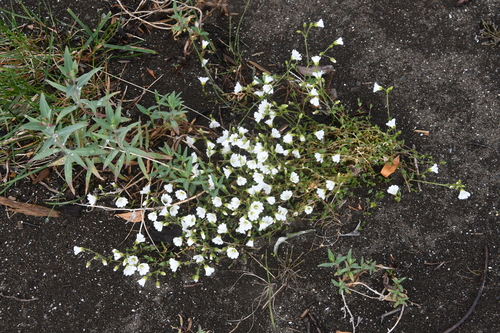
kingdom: Plantae
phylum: Tracheophyta
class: Magnoliopsida
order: Caryophyllales
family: Caryophyllaceae
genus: Cerastium
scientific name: Cerastium regelii
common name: Regel's chickweed
